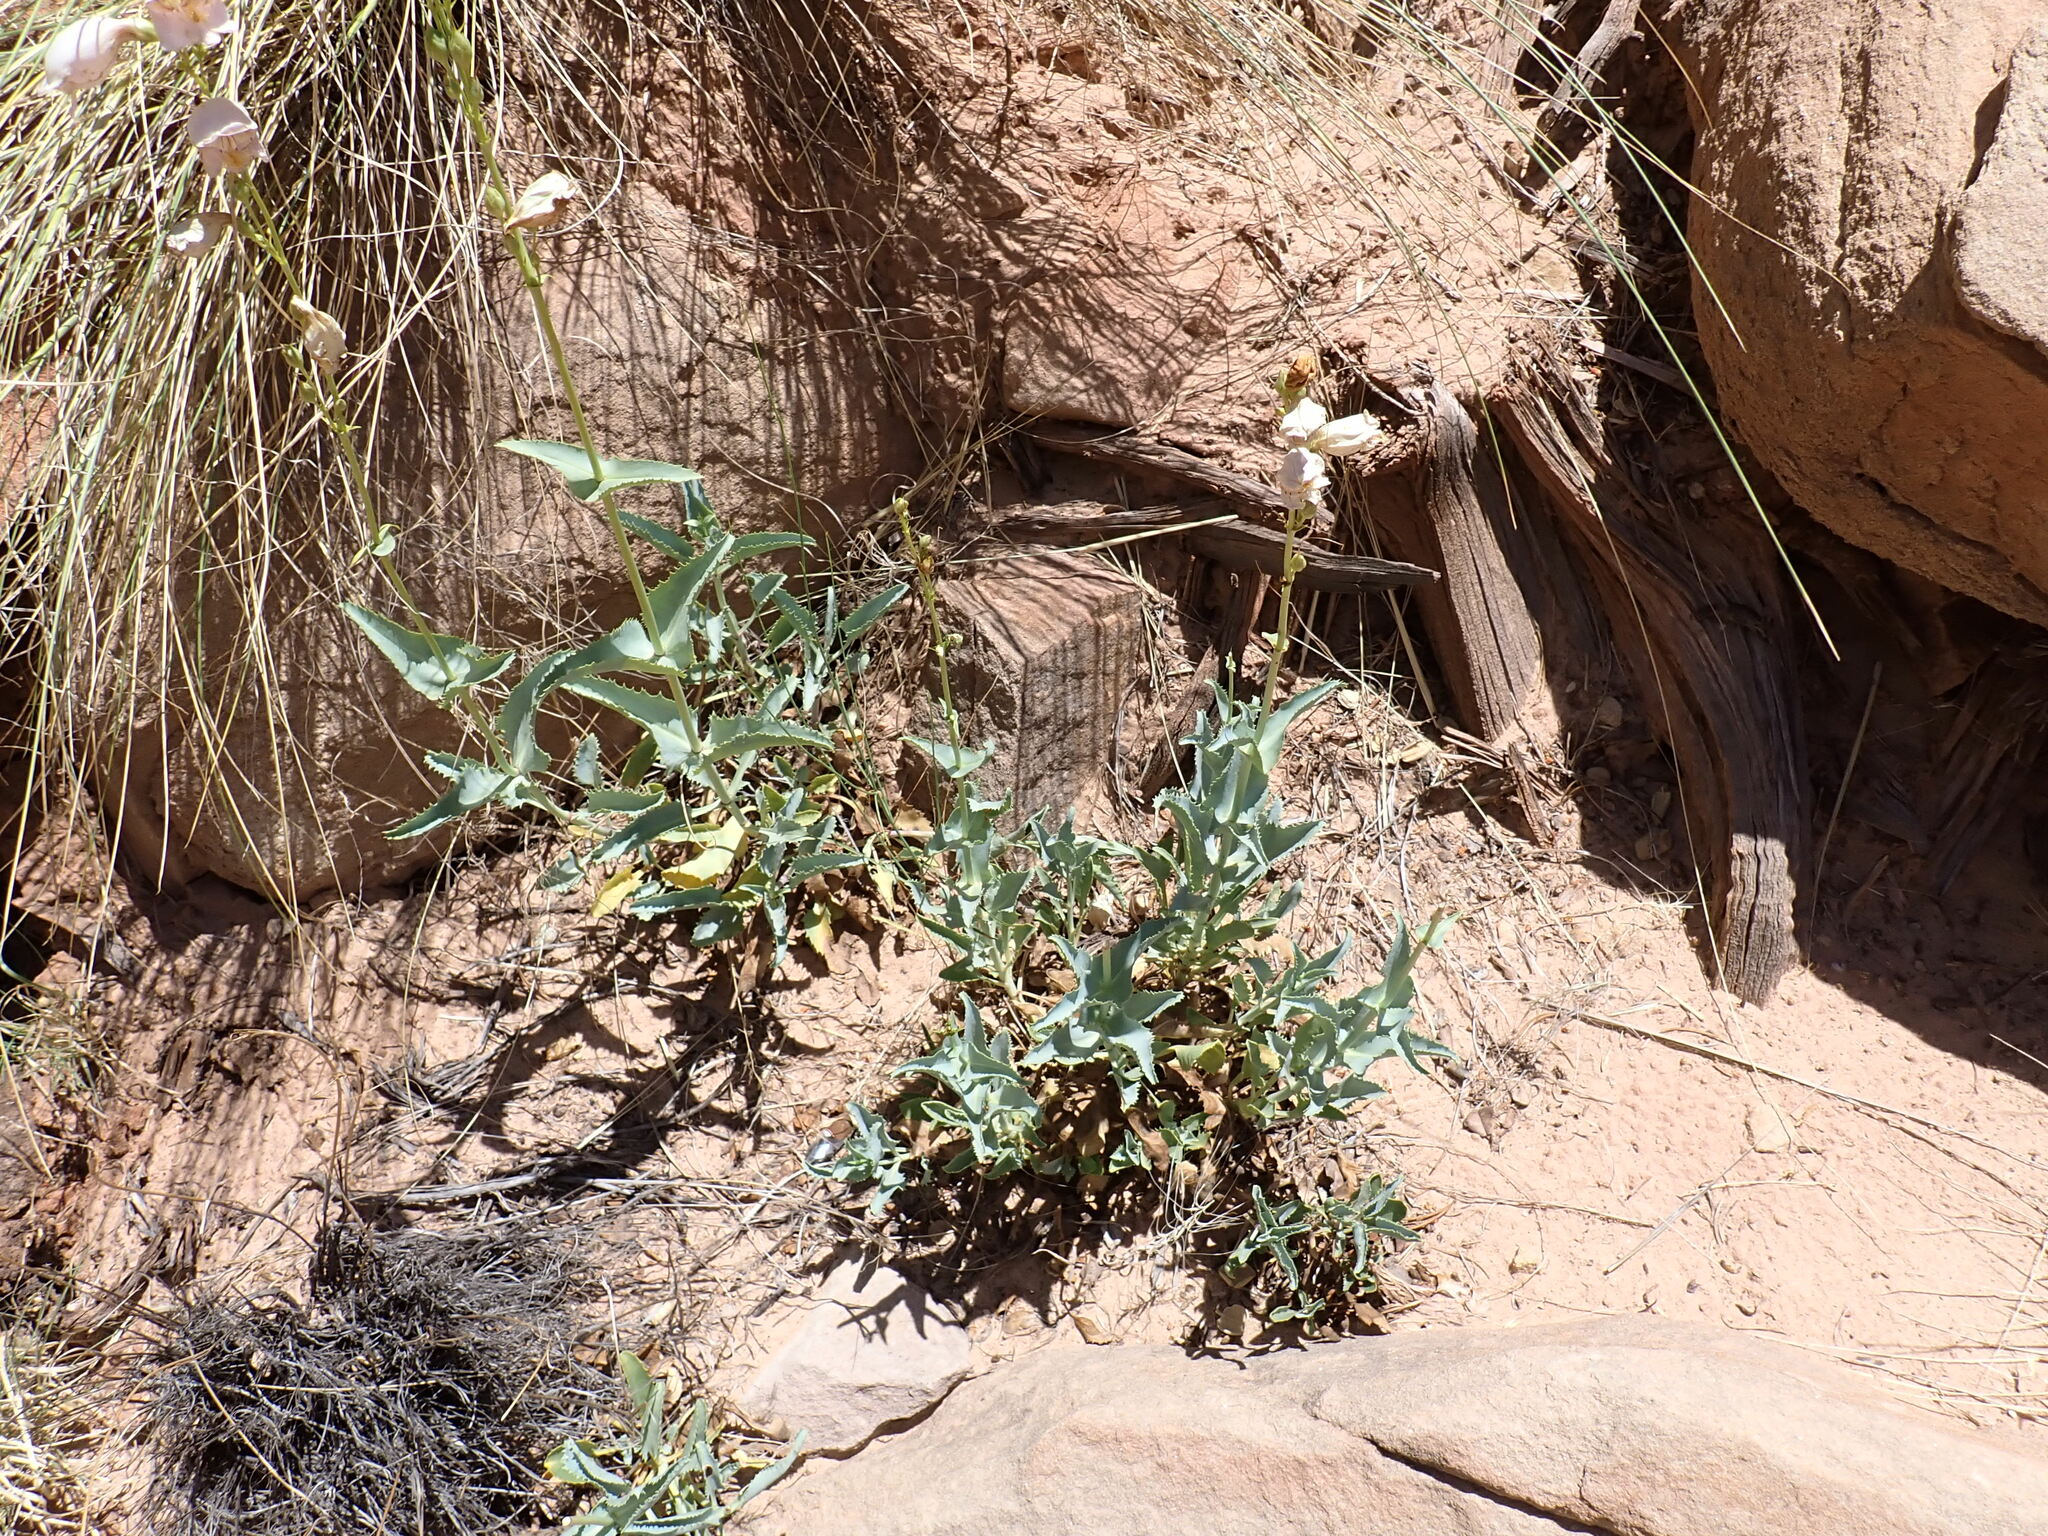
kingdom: Plantae
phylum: Tracheophyta
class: Magnoliopsida
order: Lamiales
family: Plantaginaceae
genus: Penstemon
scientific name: Penstemon palmeri
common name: Palmer penstemon
